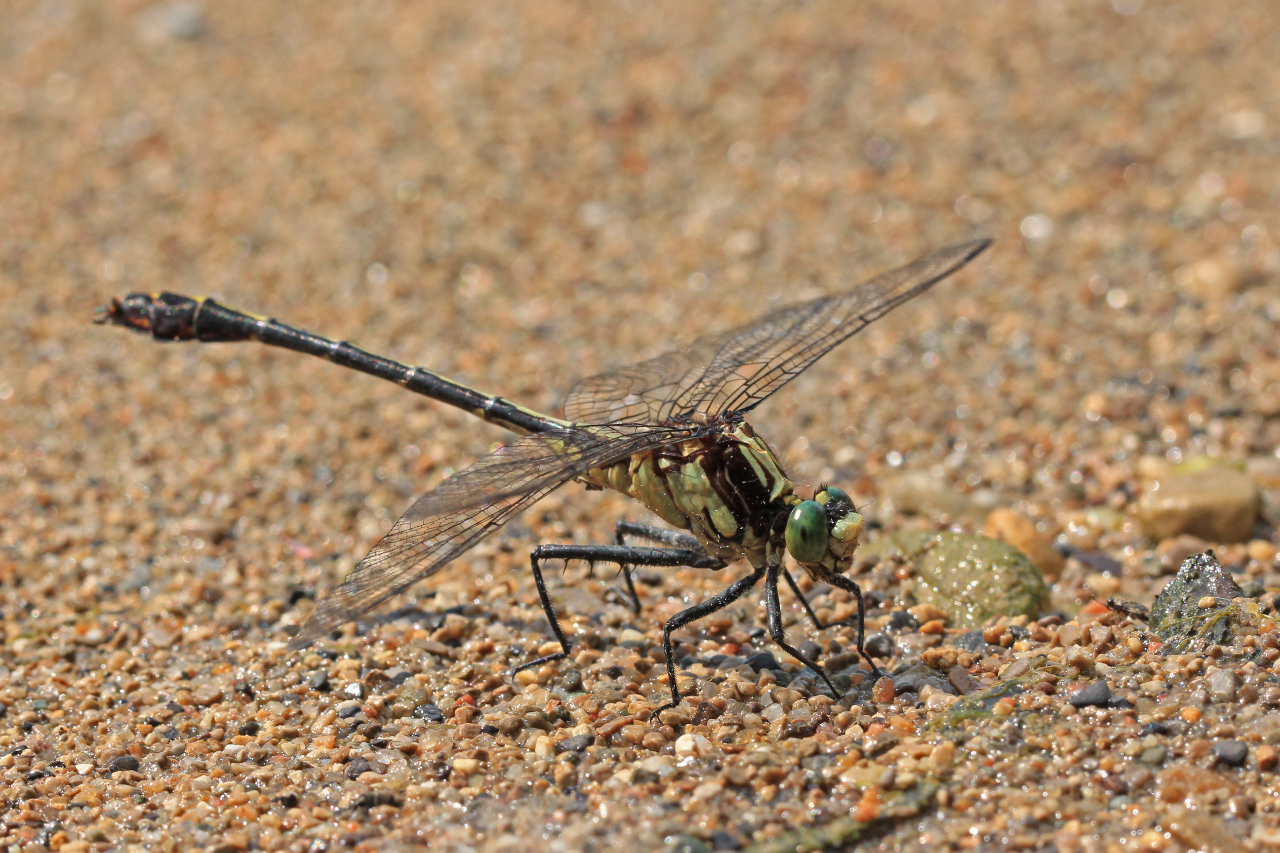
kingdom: Animalia
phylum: Arthropoda
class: Insecta
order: Odonata
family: Gomphidae
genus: Dromogomphus
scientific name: Dromogomphus spinosus
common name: Black-shouldered spinyleg
